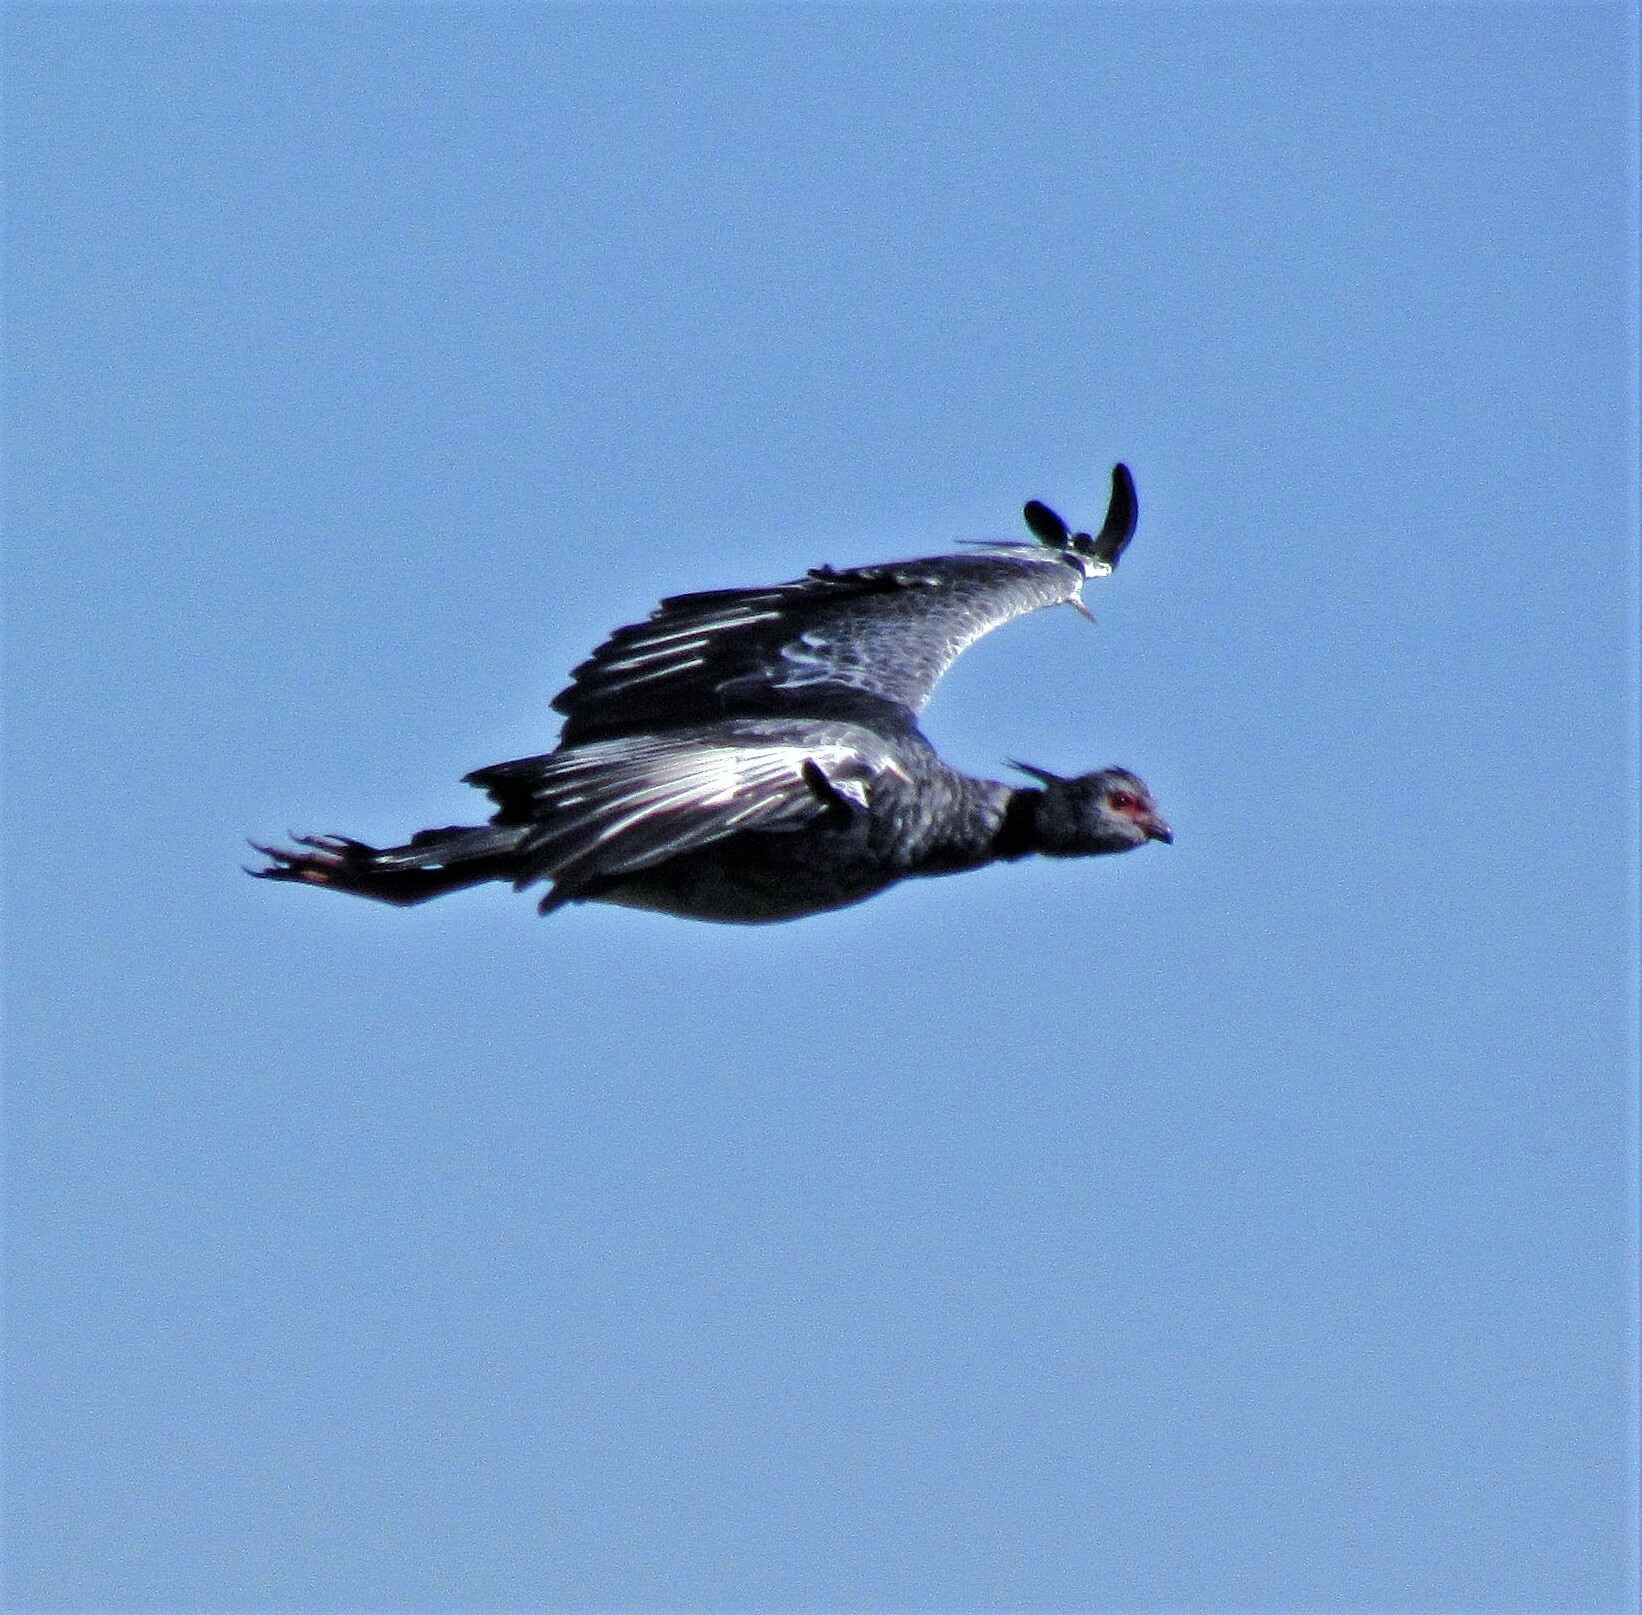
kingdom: Animalia
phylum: Chordata
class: Aves
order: Anseriformes
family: Anhimidae
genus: Chauna
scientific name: Chauna torquata
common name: Southern screamer
